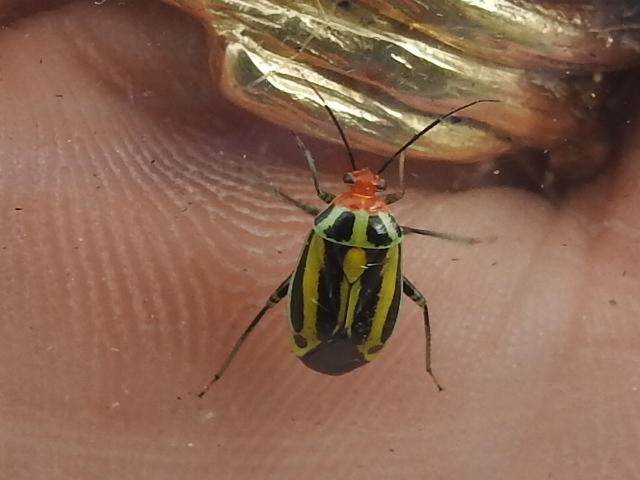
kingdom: Animalia
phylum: Arthropoda
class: Insecta
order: Hemiptera
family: Miridae
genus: Poecilocapsus
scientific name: Poecilocapsus lineatus
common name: Four-lined plant bug
